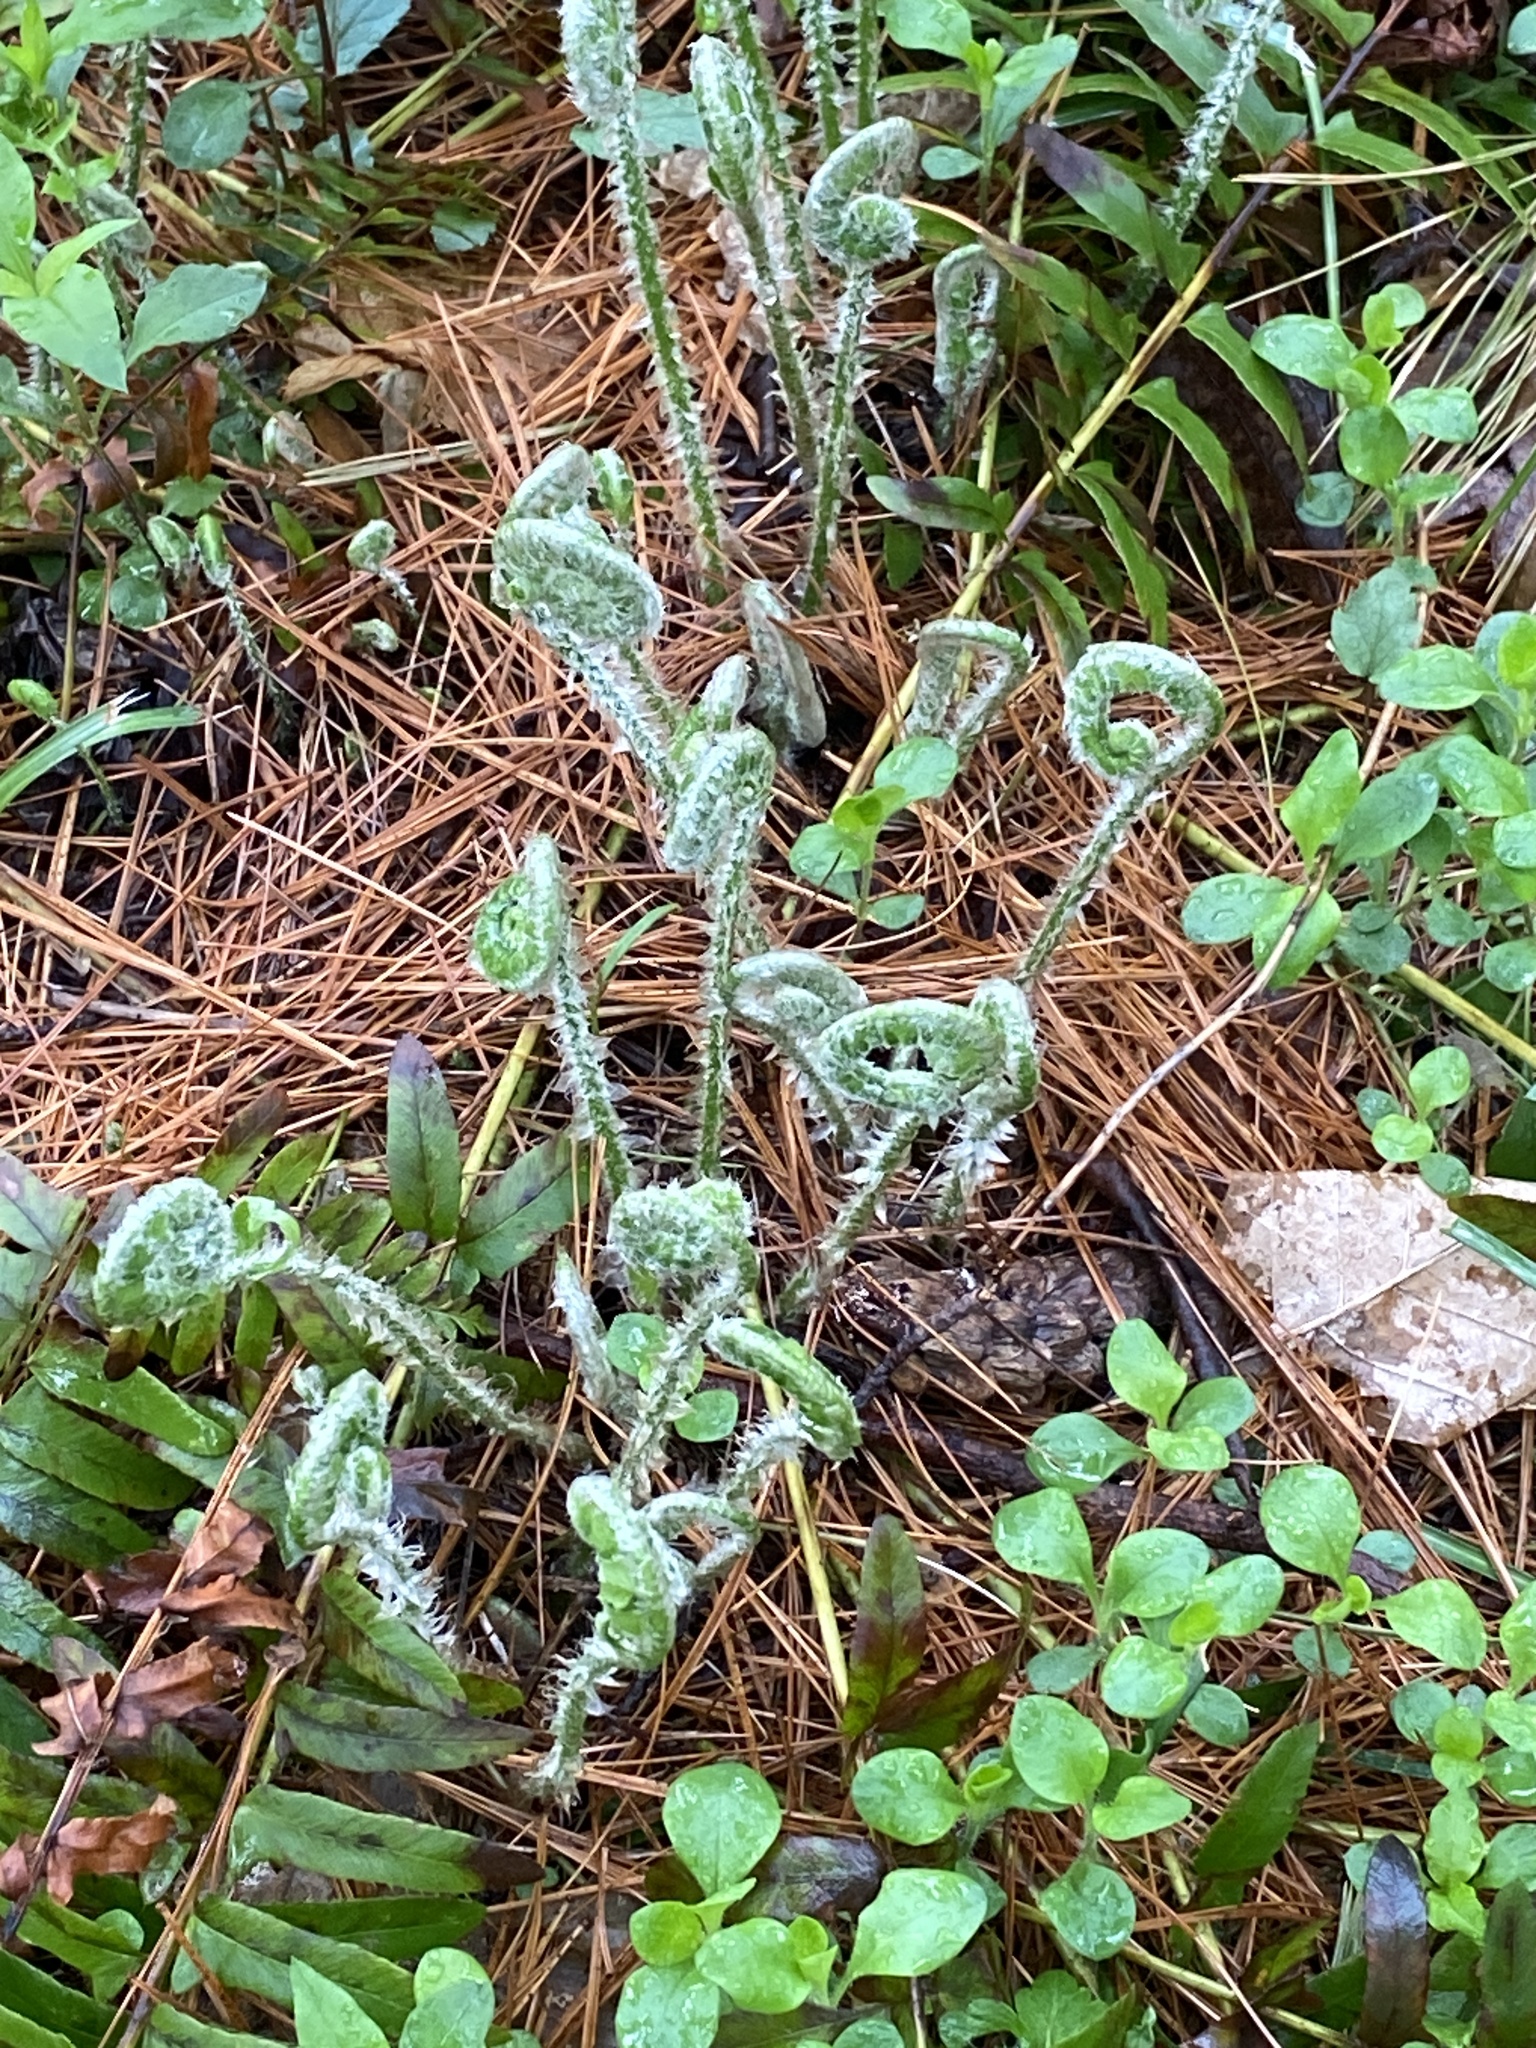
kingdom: Plantae
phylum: Tracheophyta
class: Polypodiopsida
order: Polypodiales
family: Dryopteridaceae
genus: Polystichum
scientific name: Polystichum acrostichoides
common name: Christmas fern
